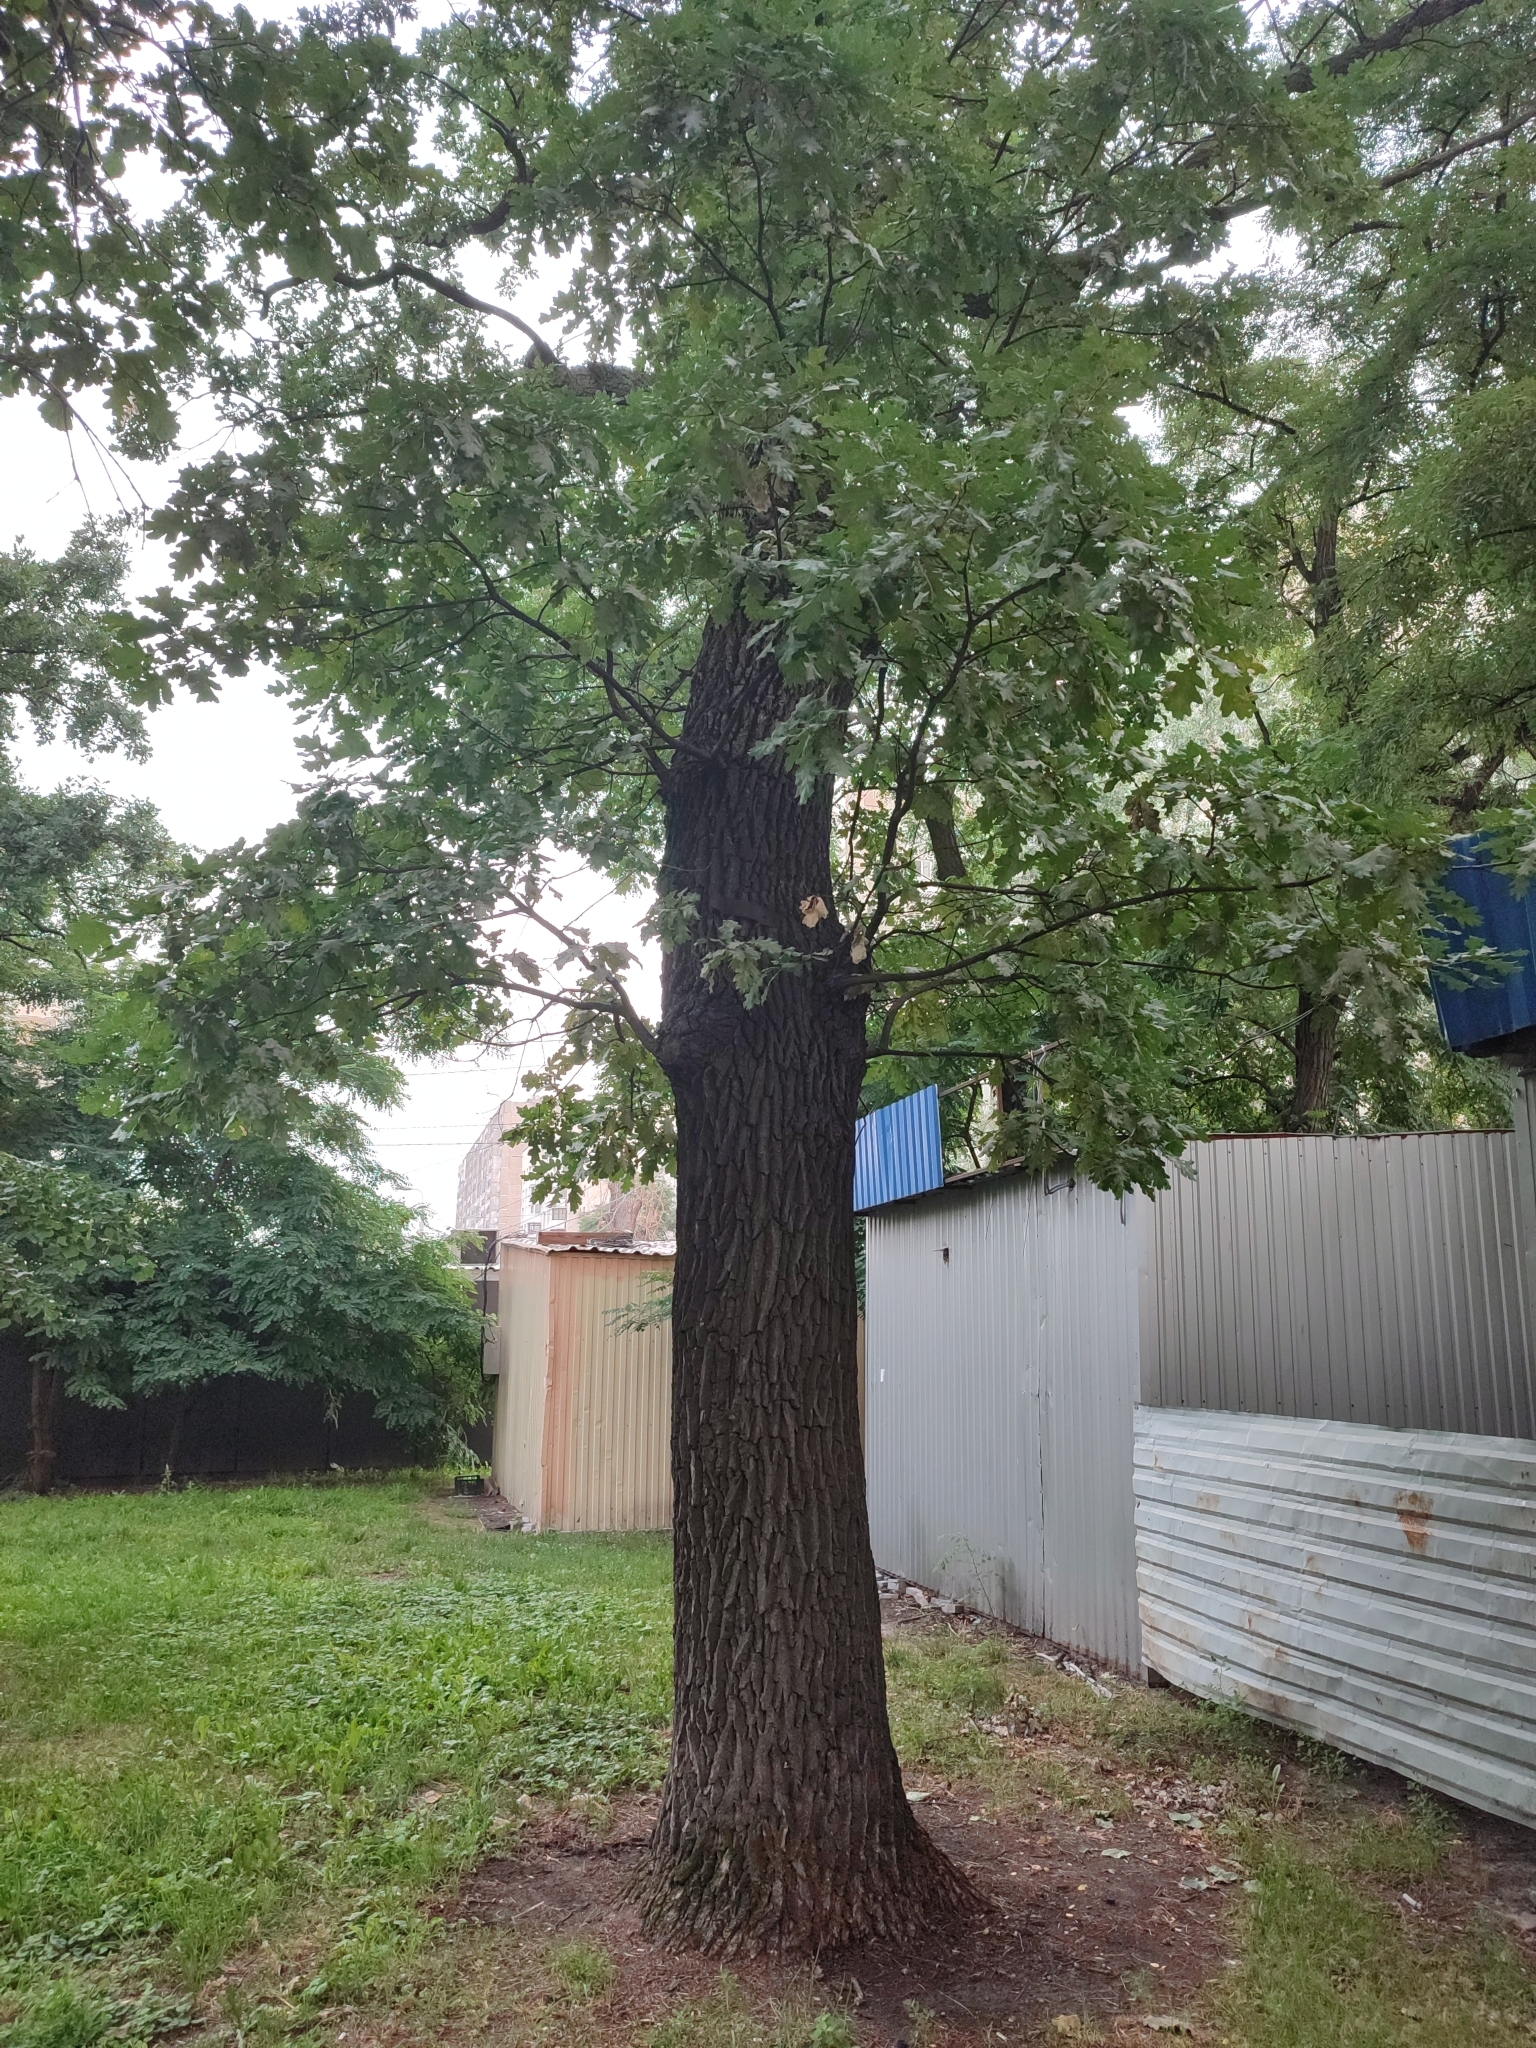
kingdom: Plantae
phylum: Tracheophyta
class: Magnoliopsida
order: Fagales
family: Fagaceae
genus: Quercus
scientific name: Quercus robur
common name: Pedunculate oak
